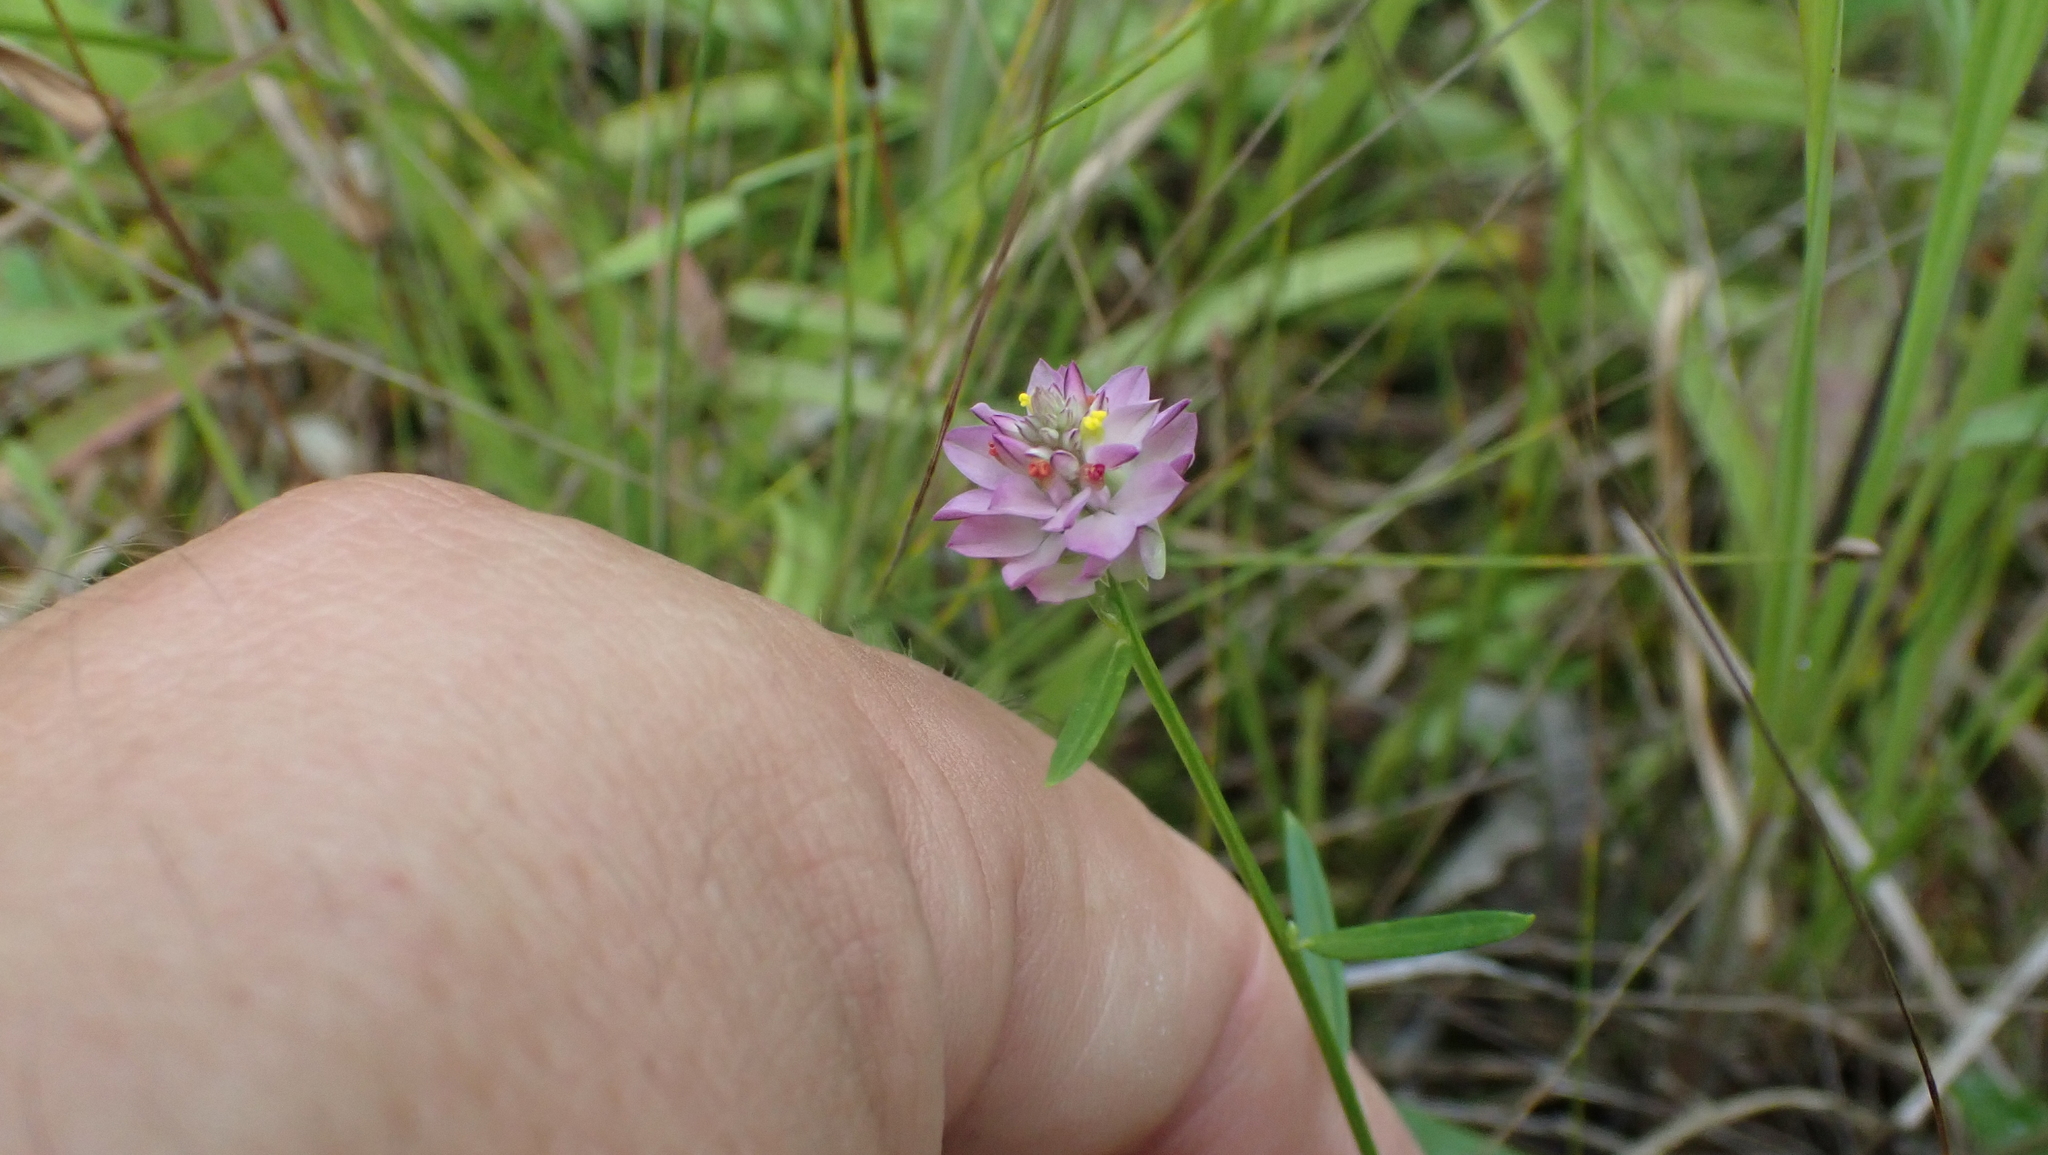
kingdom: Plantae
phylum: Tracheophyta
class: Magnoliopsida
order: Fabales
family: Polygalaceae
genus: Polygala
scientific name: Polygala sanguinea
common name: Blood milkwort
